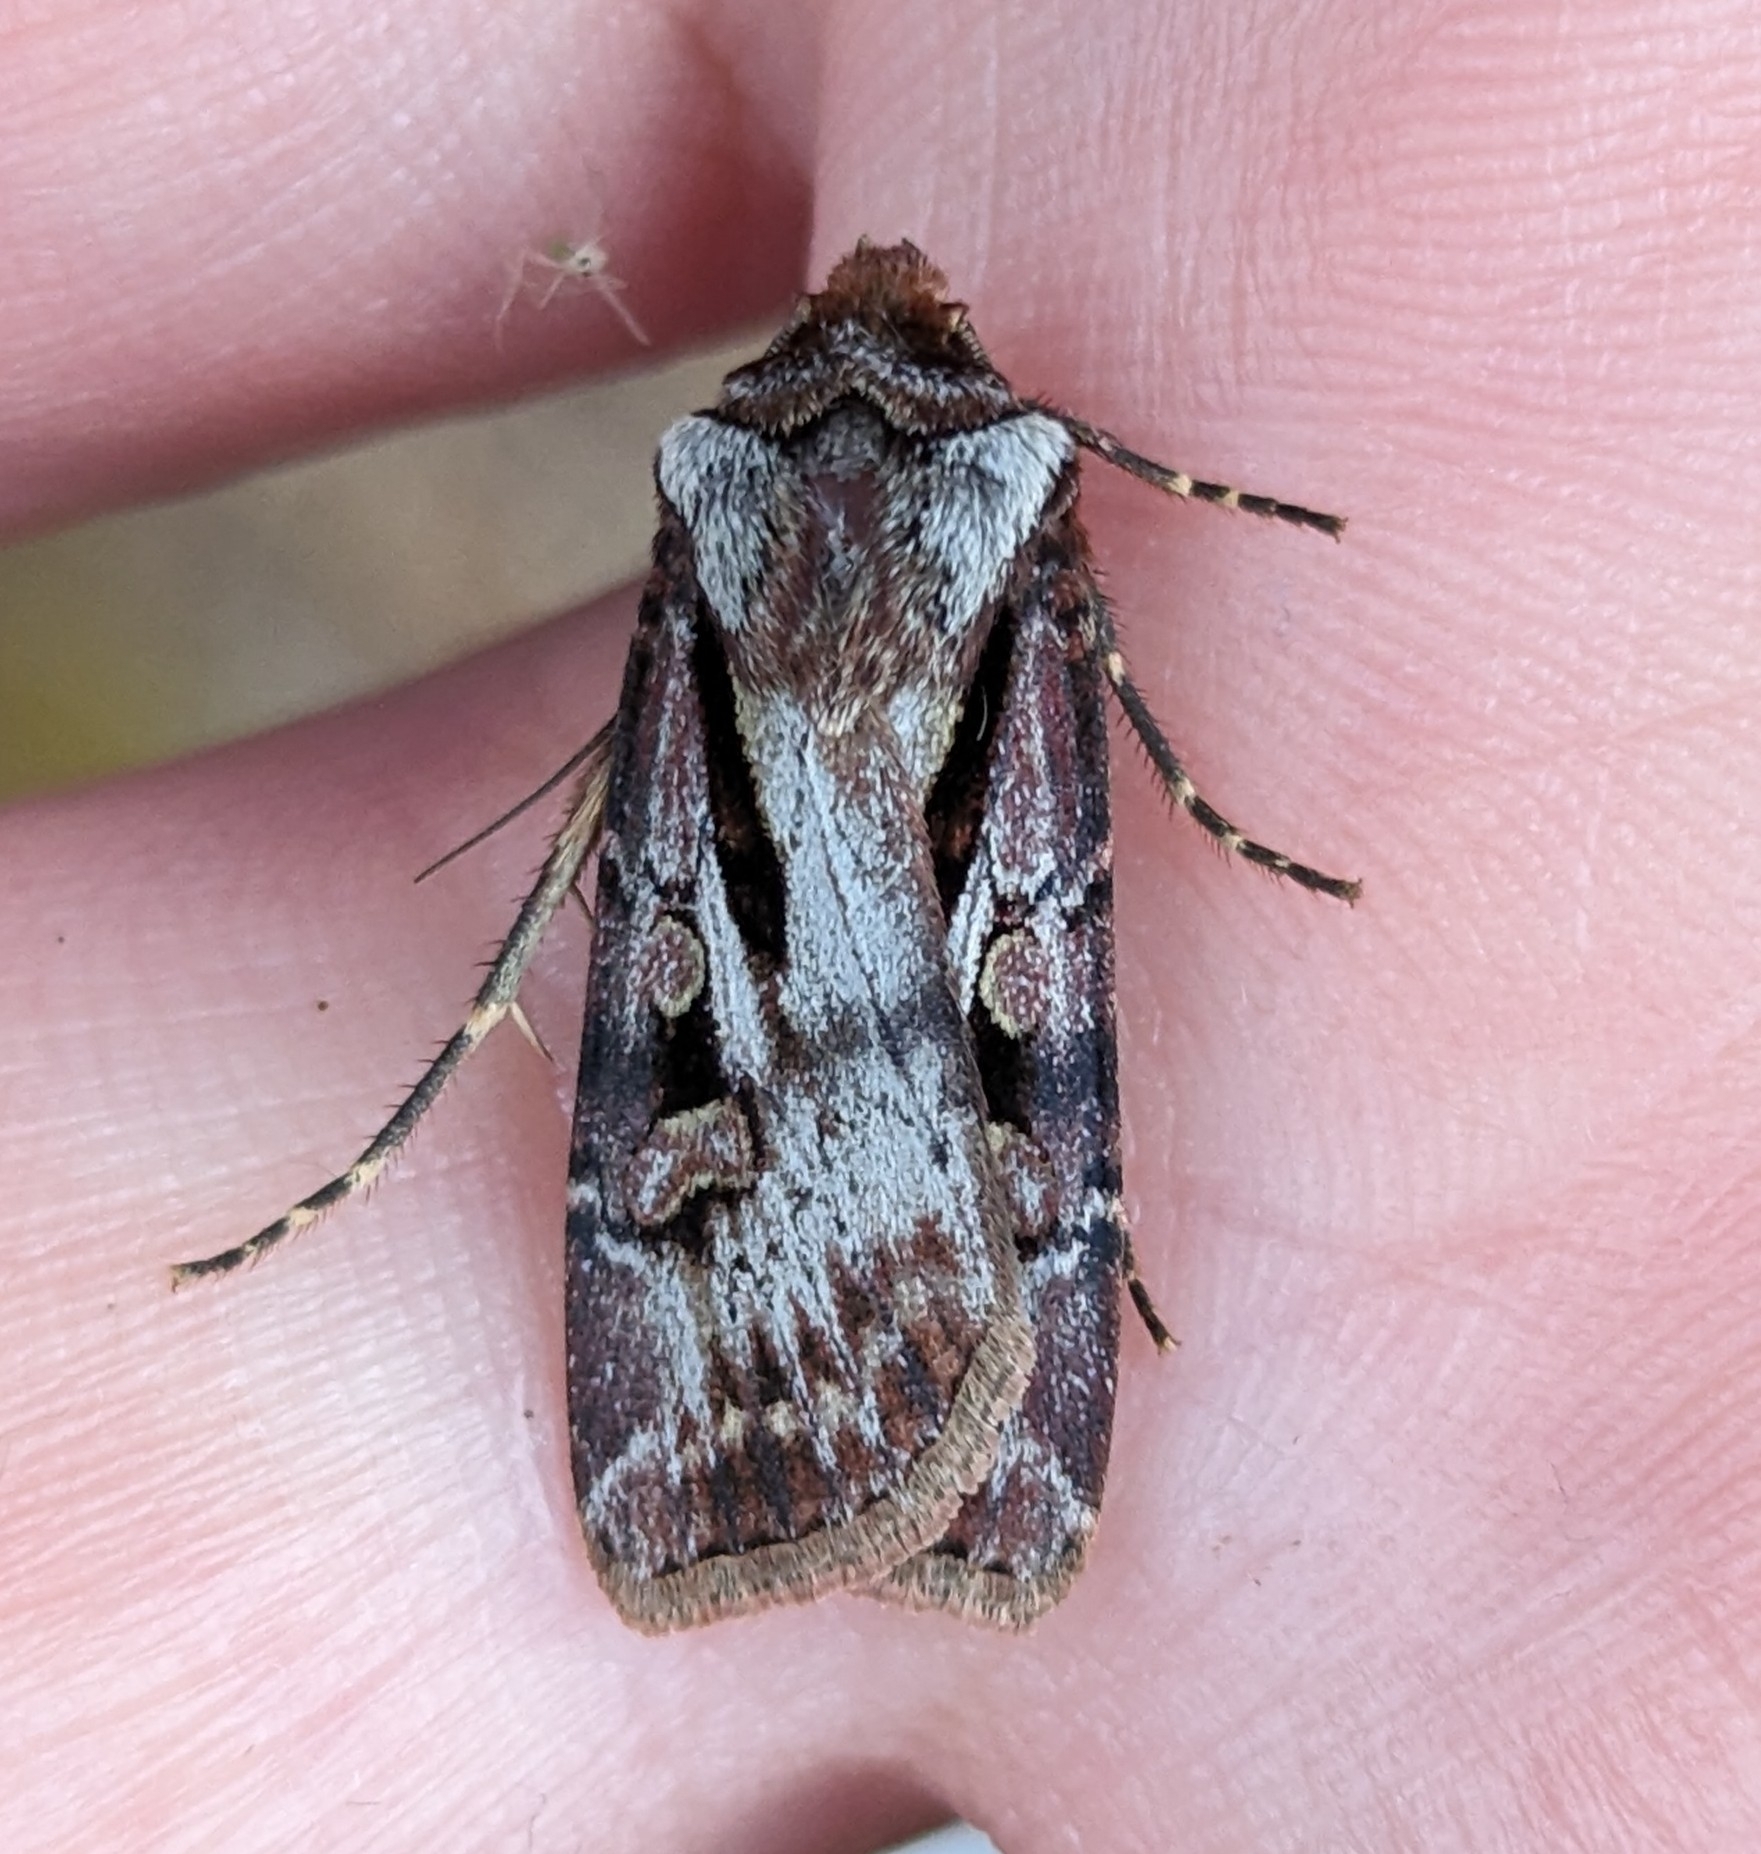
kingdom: Animalia
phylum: Arthropoda
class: Insecta
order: Lepidoptera
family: Noctuidae
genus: Agrotis
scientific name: Agrotis vancouverensis
